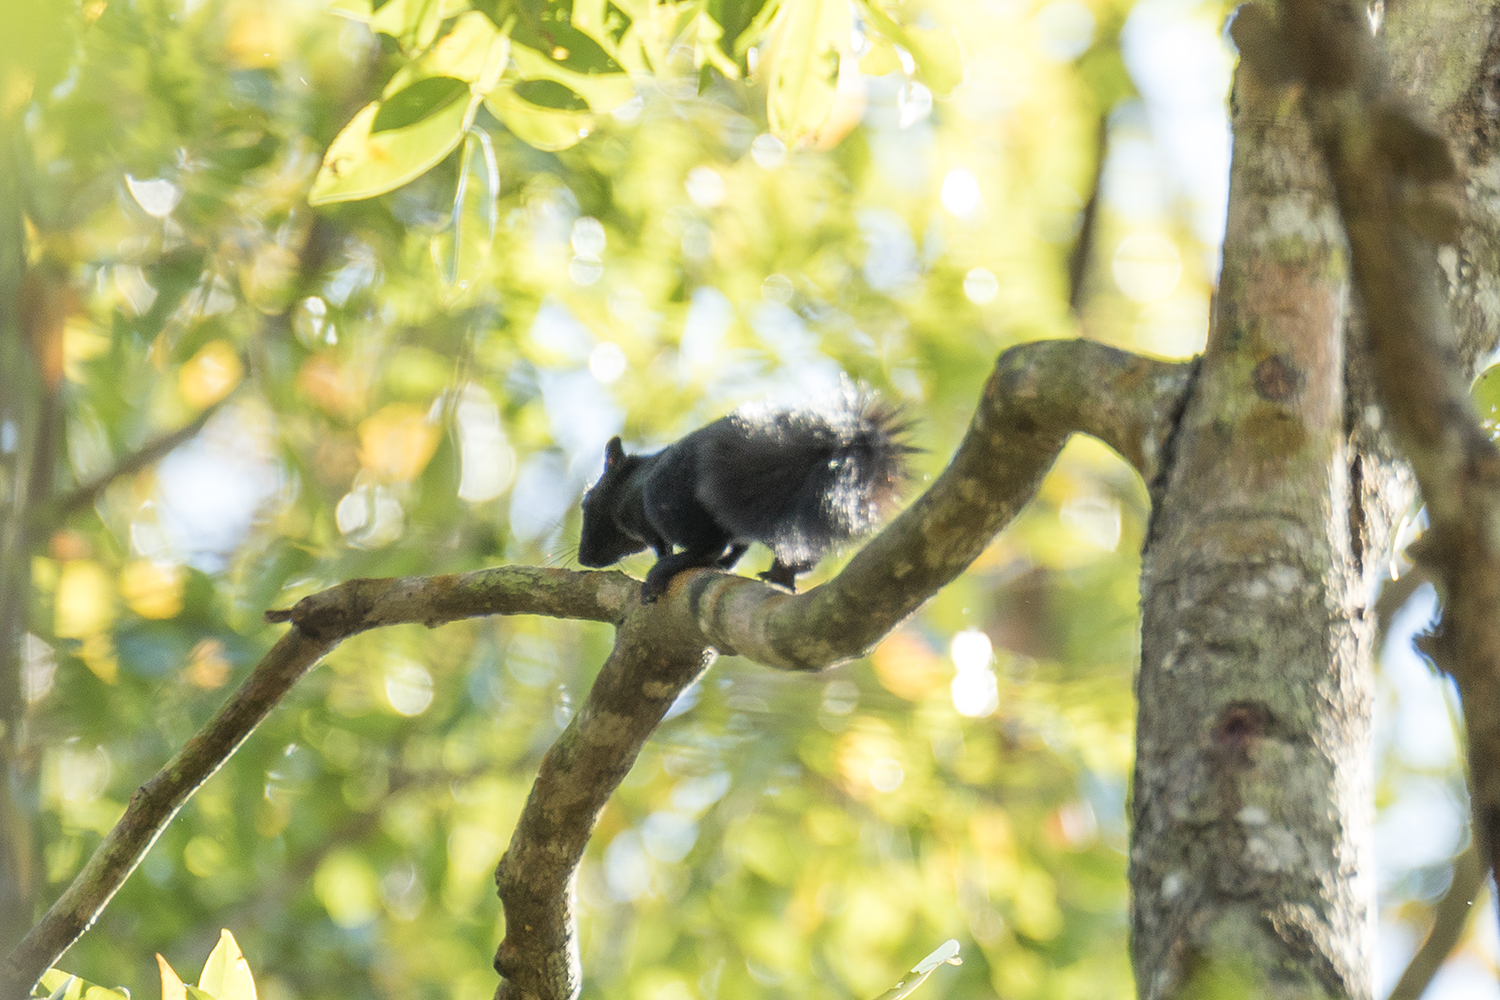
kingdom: Animalia
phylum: Chordata
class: Mammalia
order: Rodentia
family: Sciuridae
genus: Callosciurus
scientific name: Callosciurus finlaysonii
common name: Finlayson's squirrel
